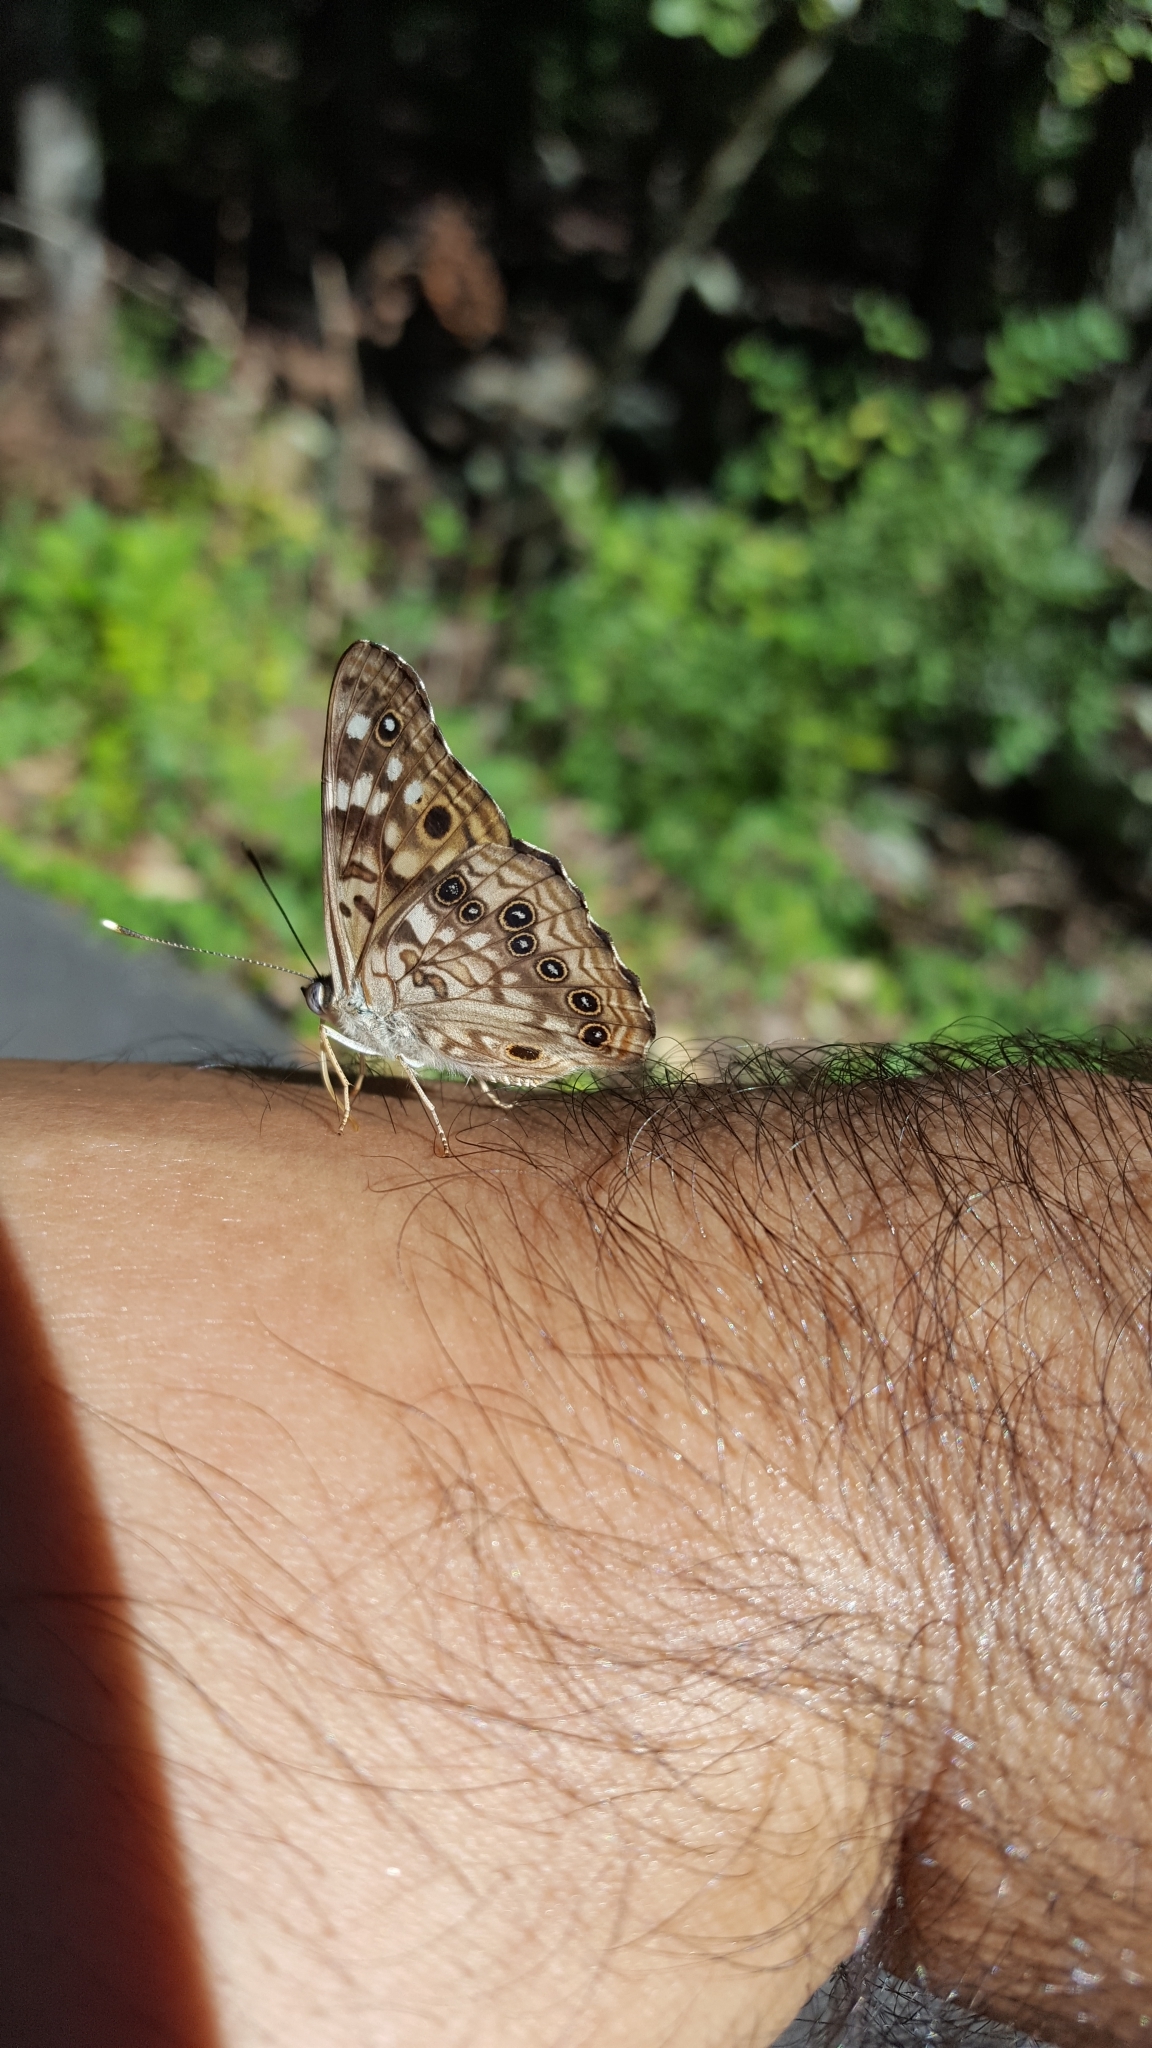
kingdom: Animalia
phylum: Arthropoda
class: Insecta
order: Lepidoptera
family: Nymphalidae
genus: Asterocampa
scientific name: Asterocampa celtis
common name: Hackberry emperor
